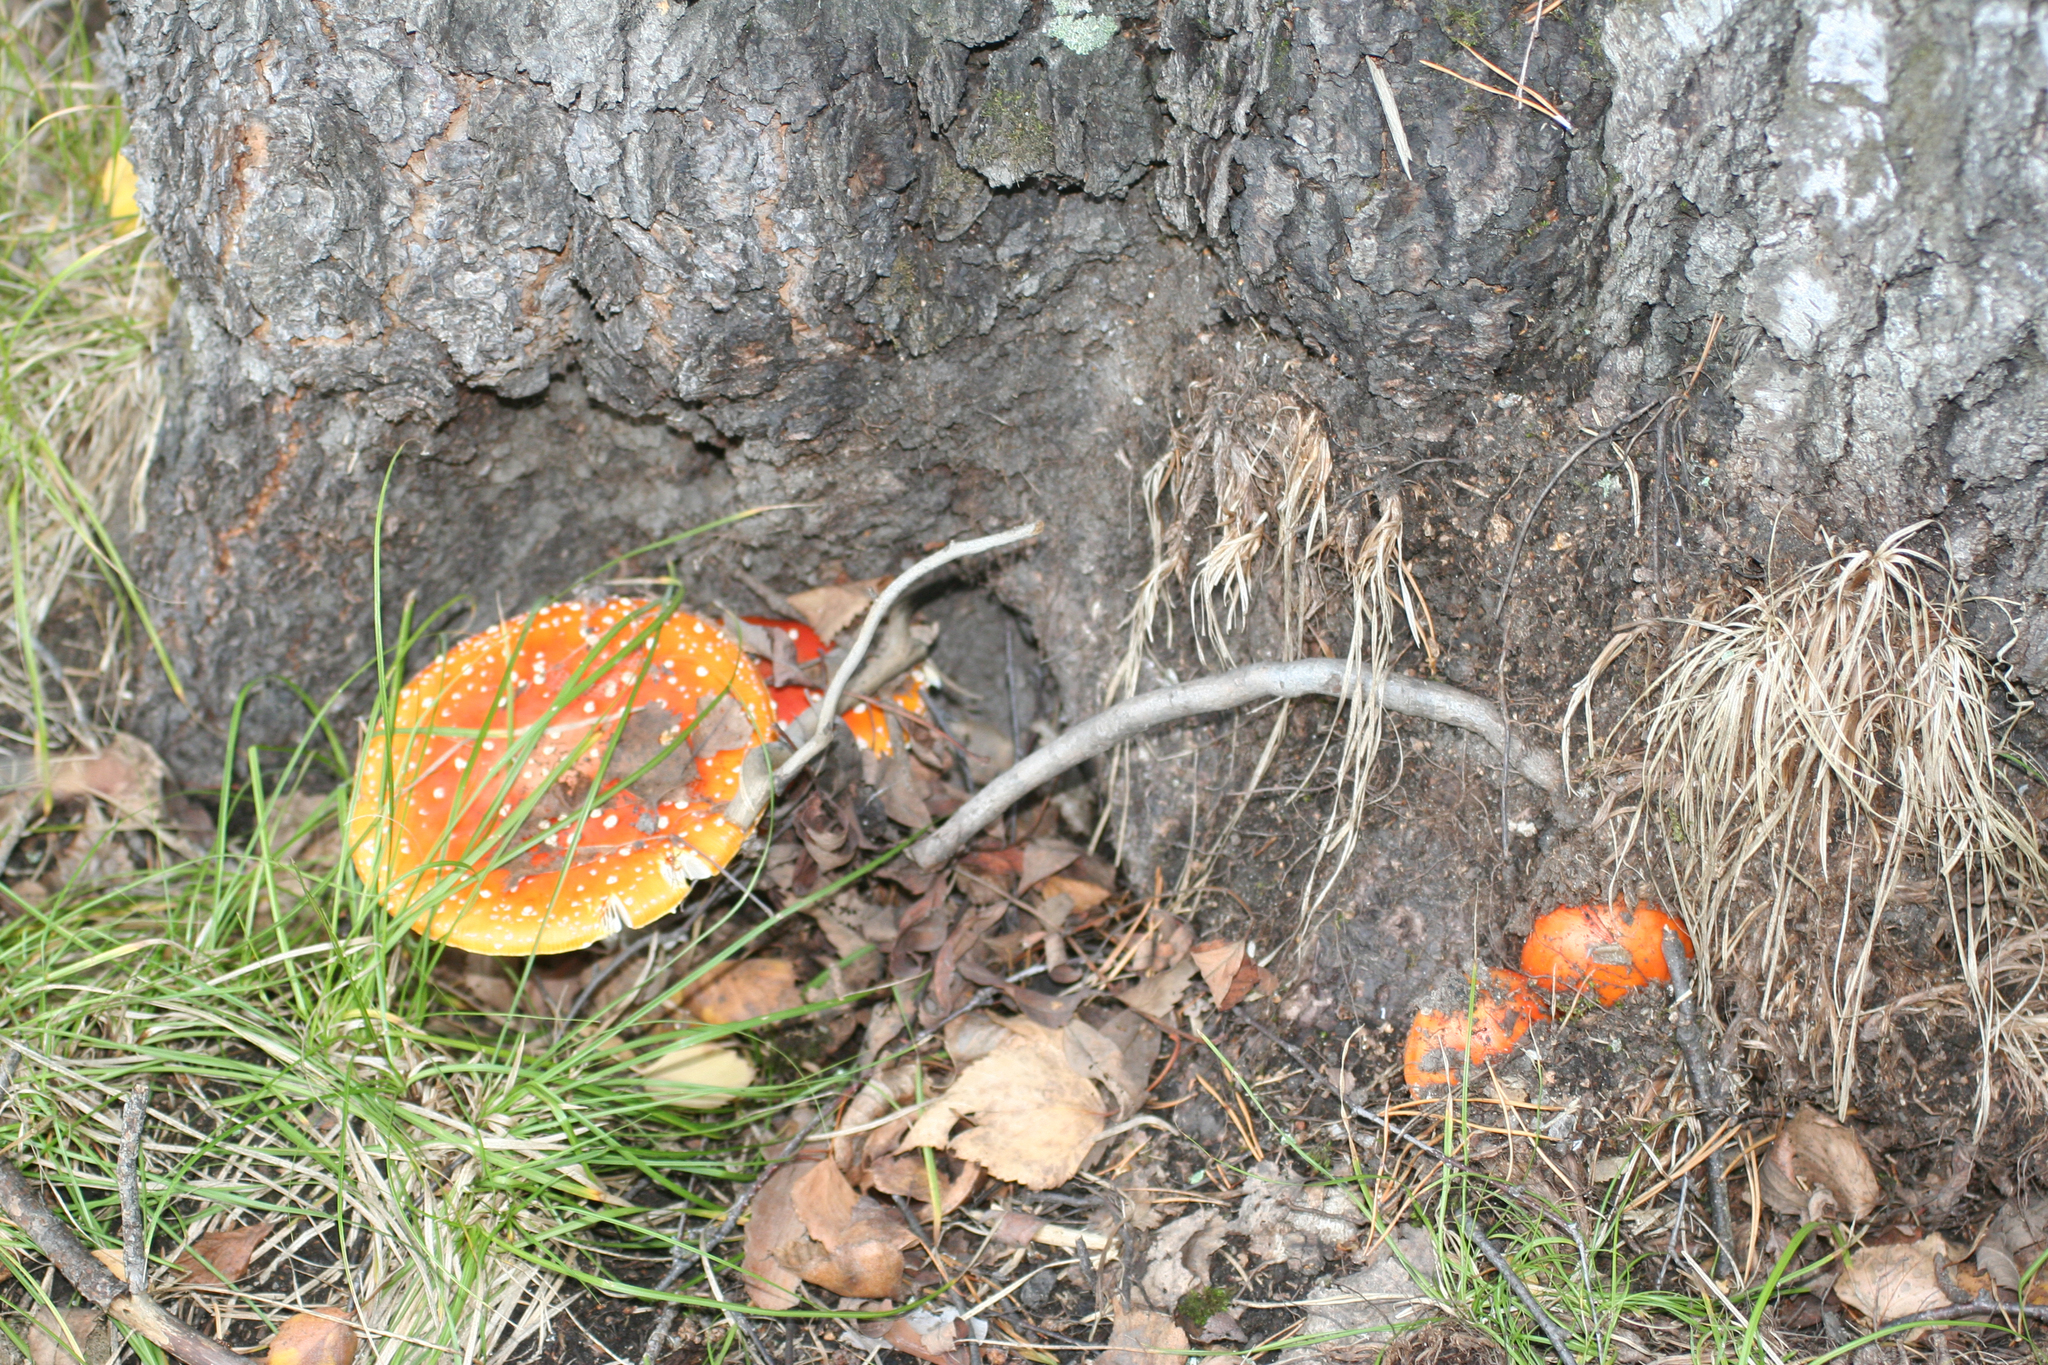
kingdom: Fungi
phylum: Basidiomycota
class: Agaricomycetes
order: Agaricales
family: Amanitaceae
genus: Amanita
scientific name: Amanita muscaria
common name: Fly agaric
